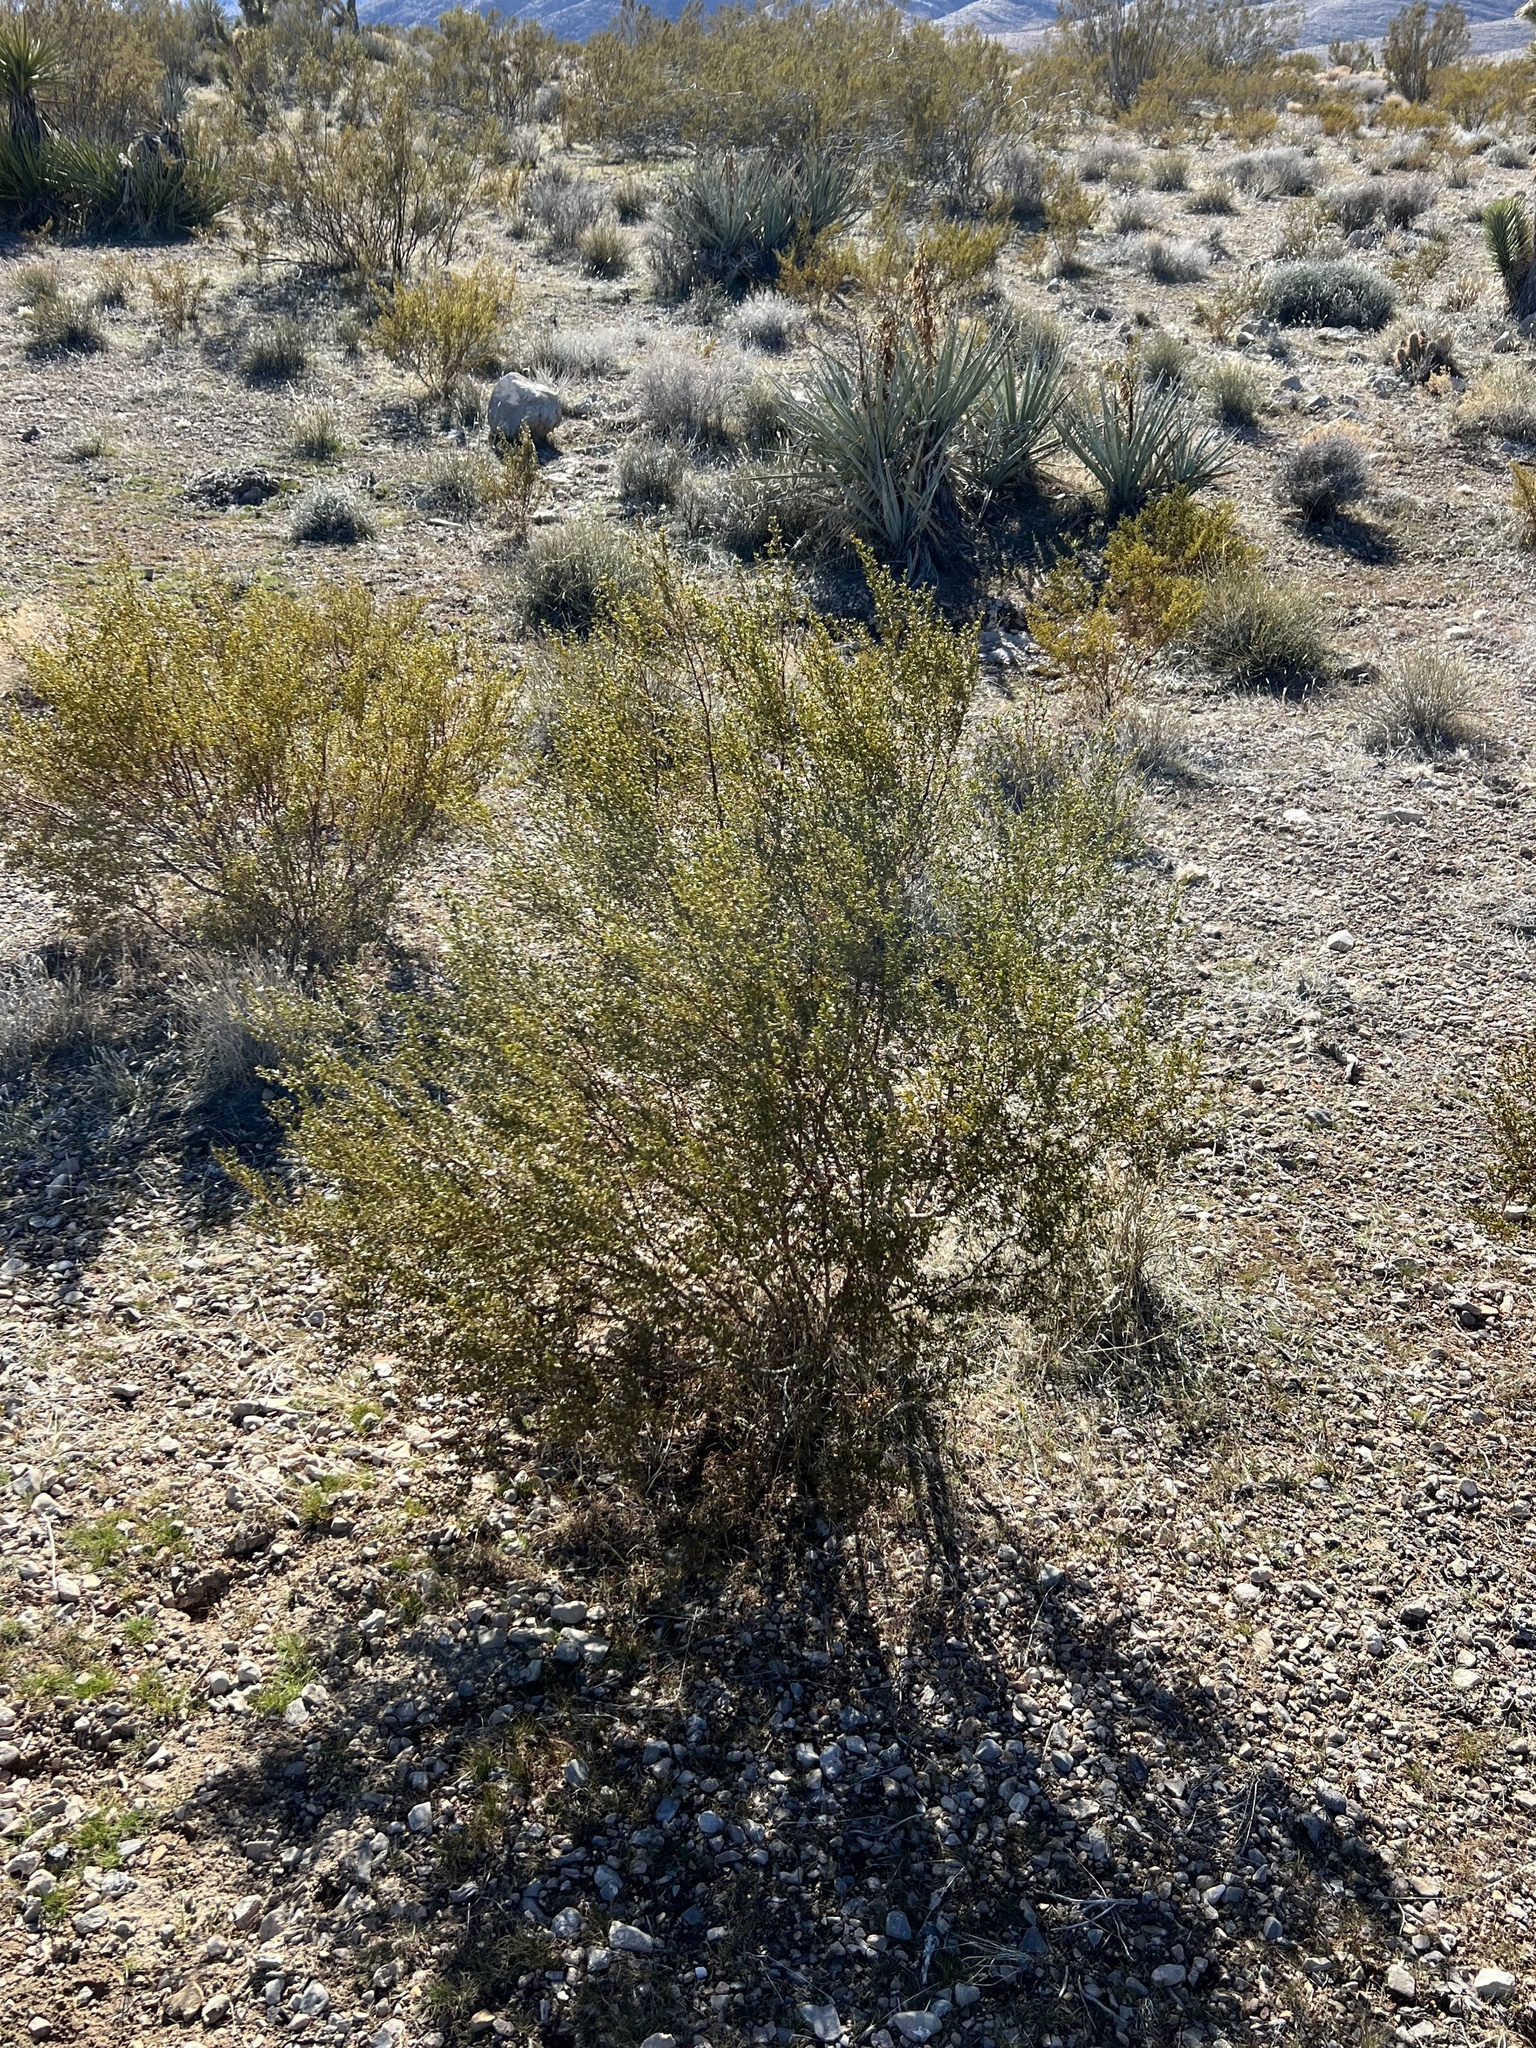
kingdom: Plantae
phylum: Tracheophyta
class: Magnoliopsida
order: Zygophyllales
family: Zygophyllaceae
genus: Larrea
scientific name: Larrea tridentata
